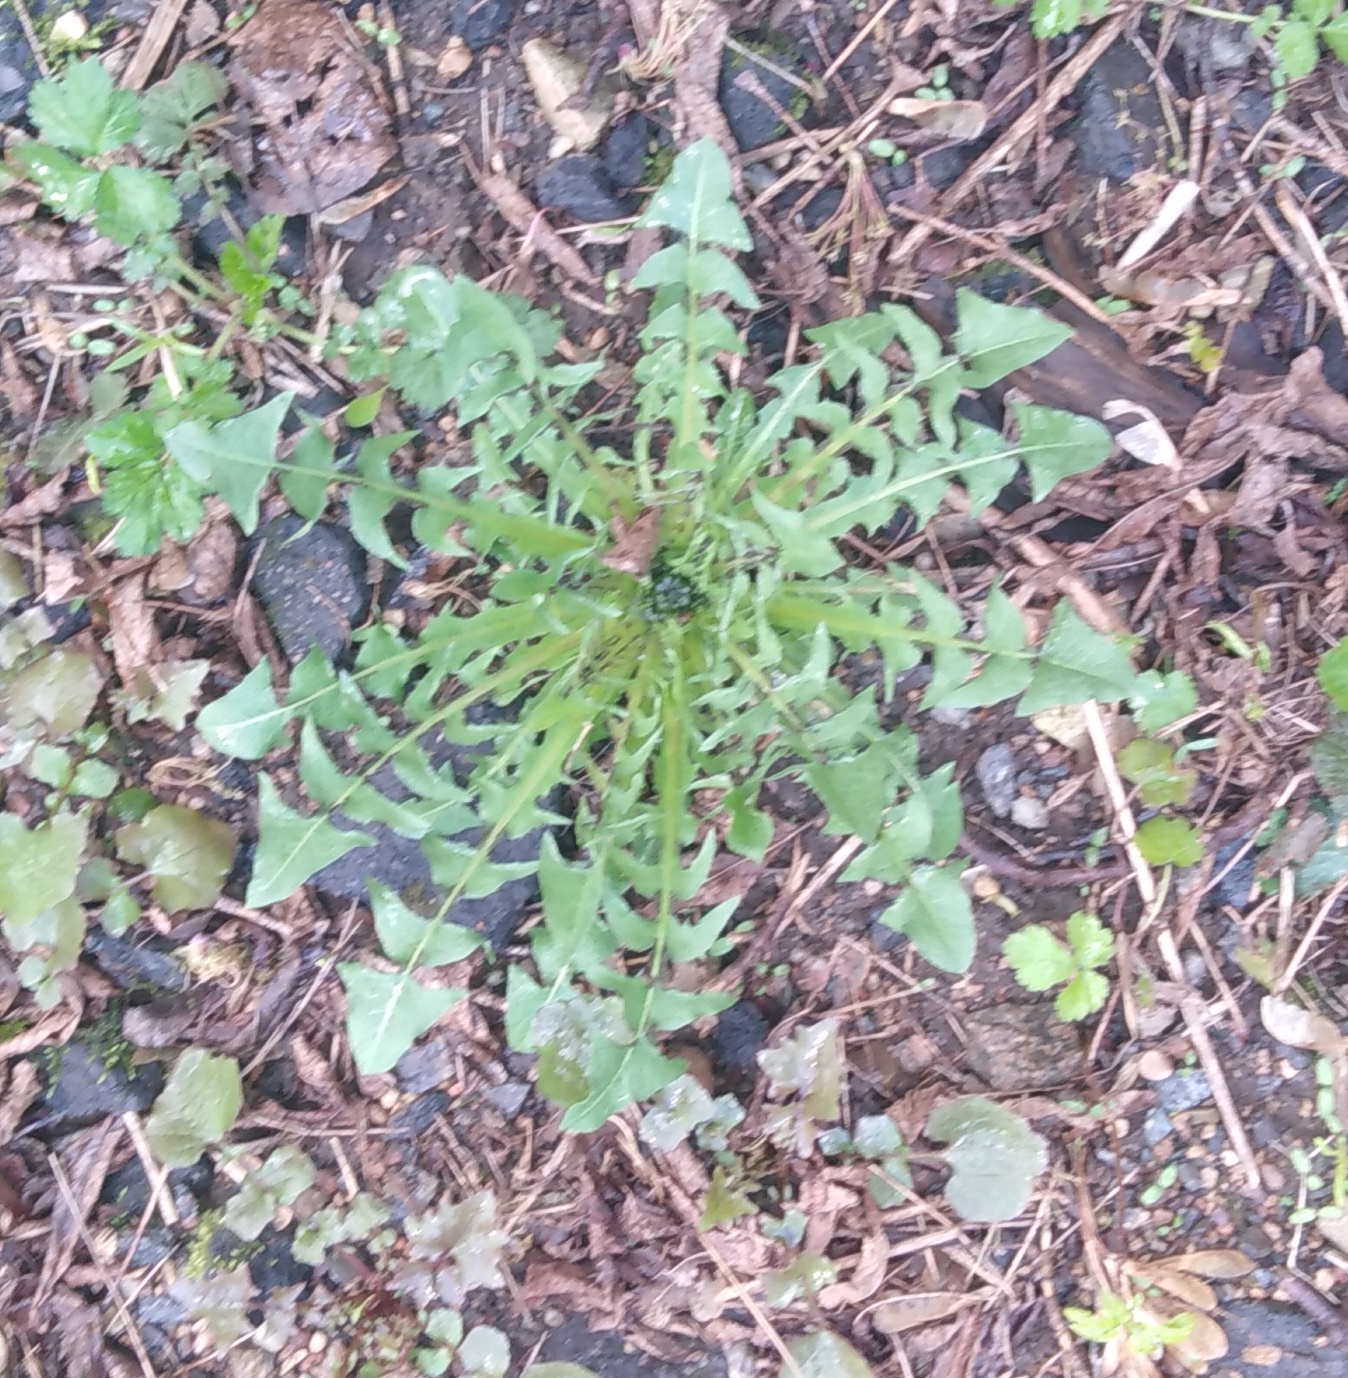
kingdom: Plantae
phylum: Tracheophyta
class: Magnoliopsida
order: Asterales
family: Asteraceae
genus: Taraxacum
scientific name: Taraxacum officinale
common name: Common dandelion
